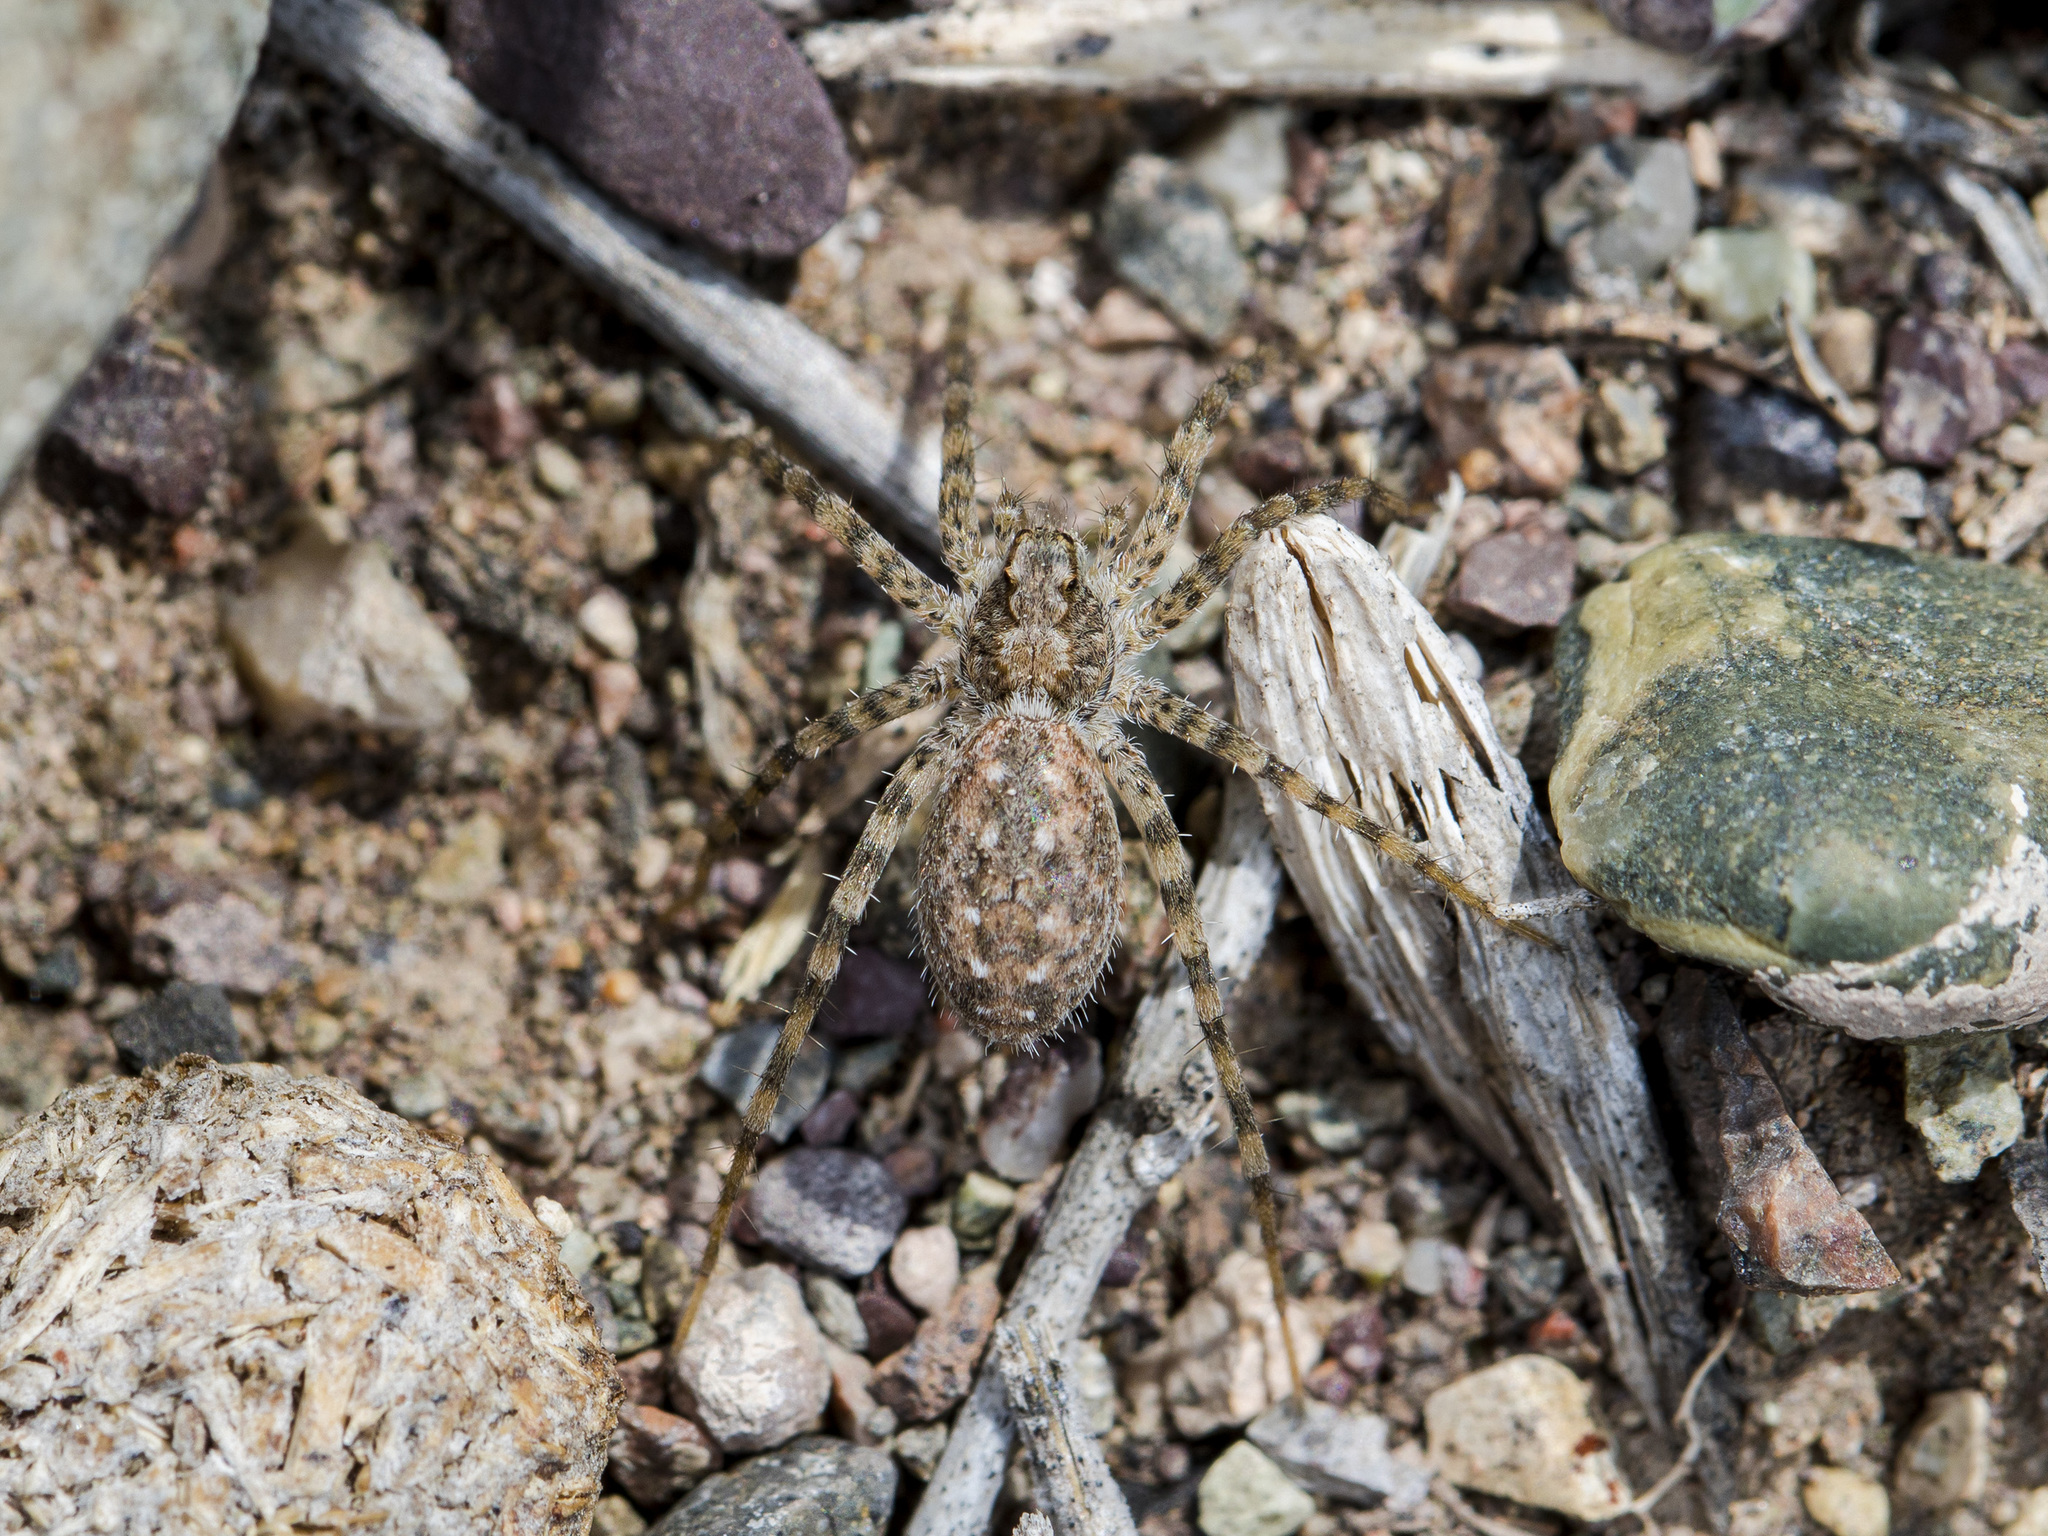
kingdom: Animalia
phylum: Arthropoda
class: Arachnida
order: Araneae
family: Lycosidae
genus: Evippa
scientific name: Evippa sjostedti
